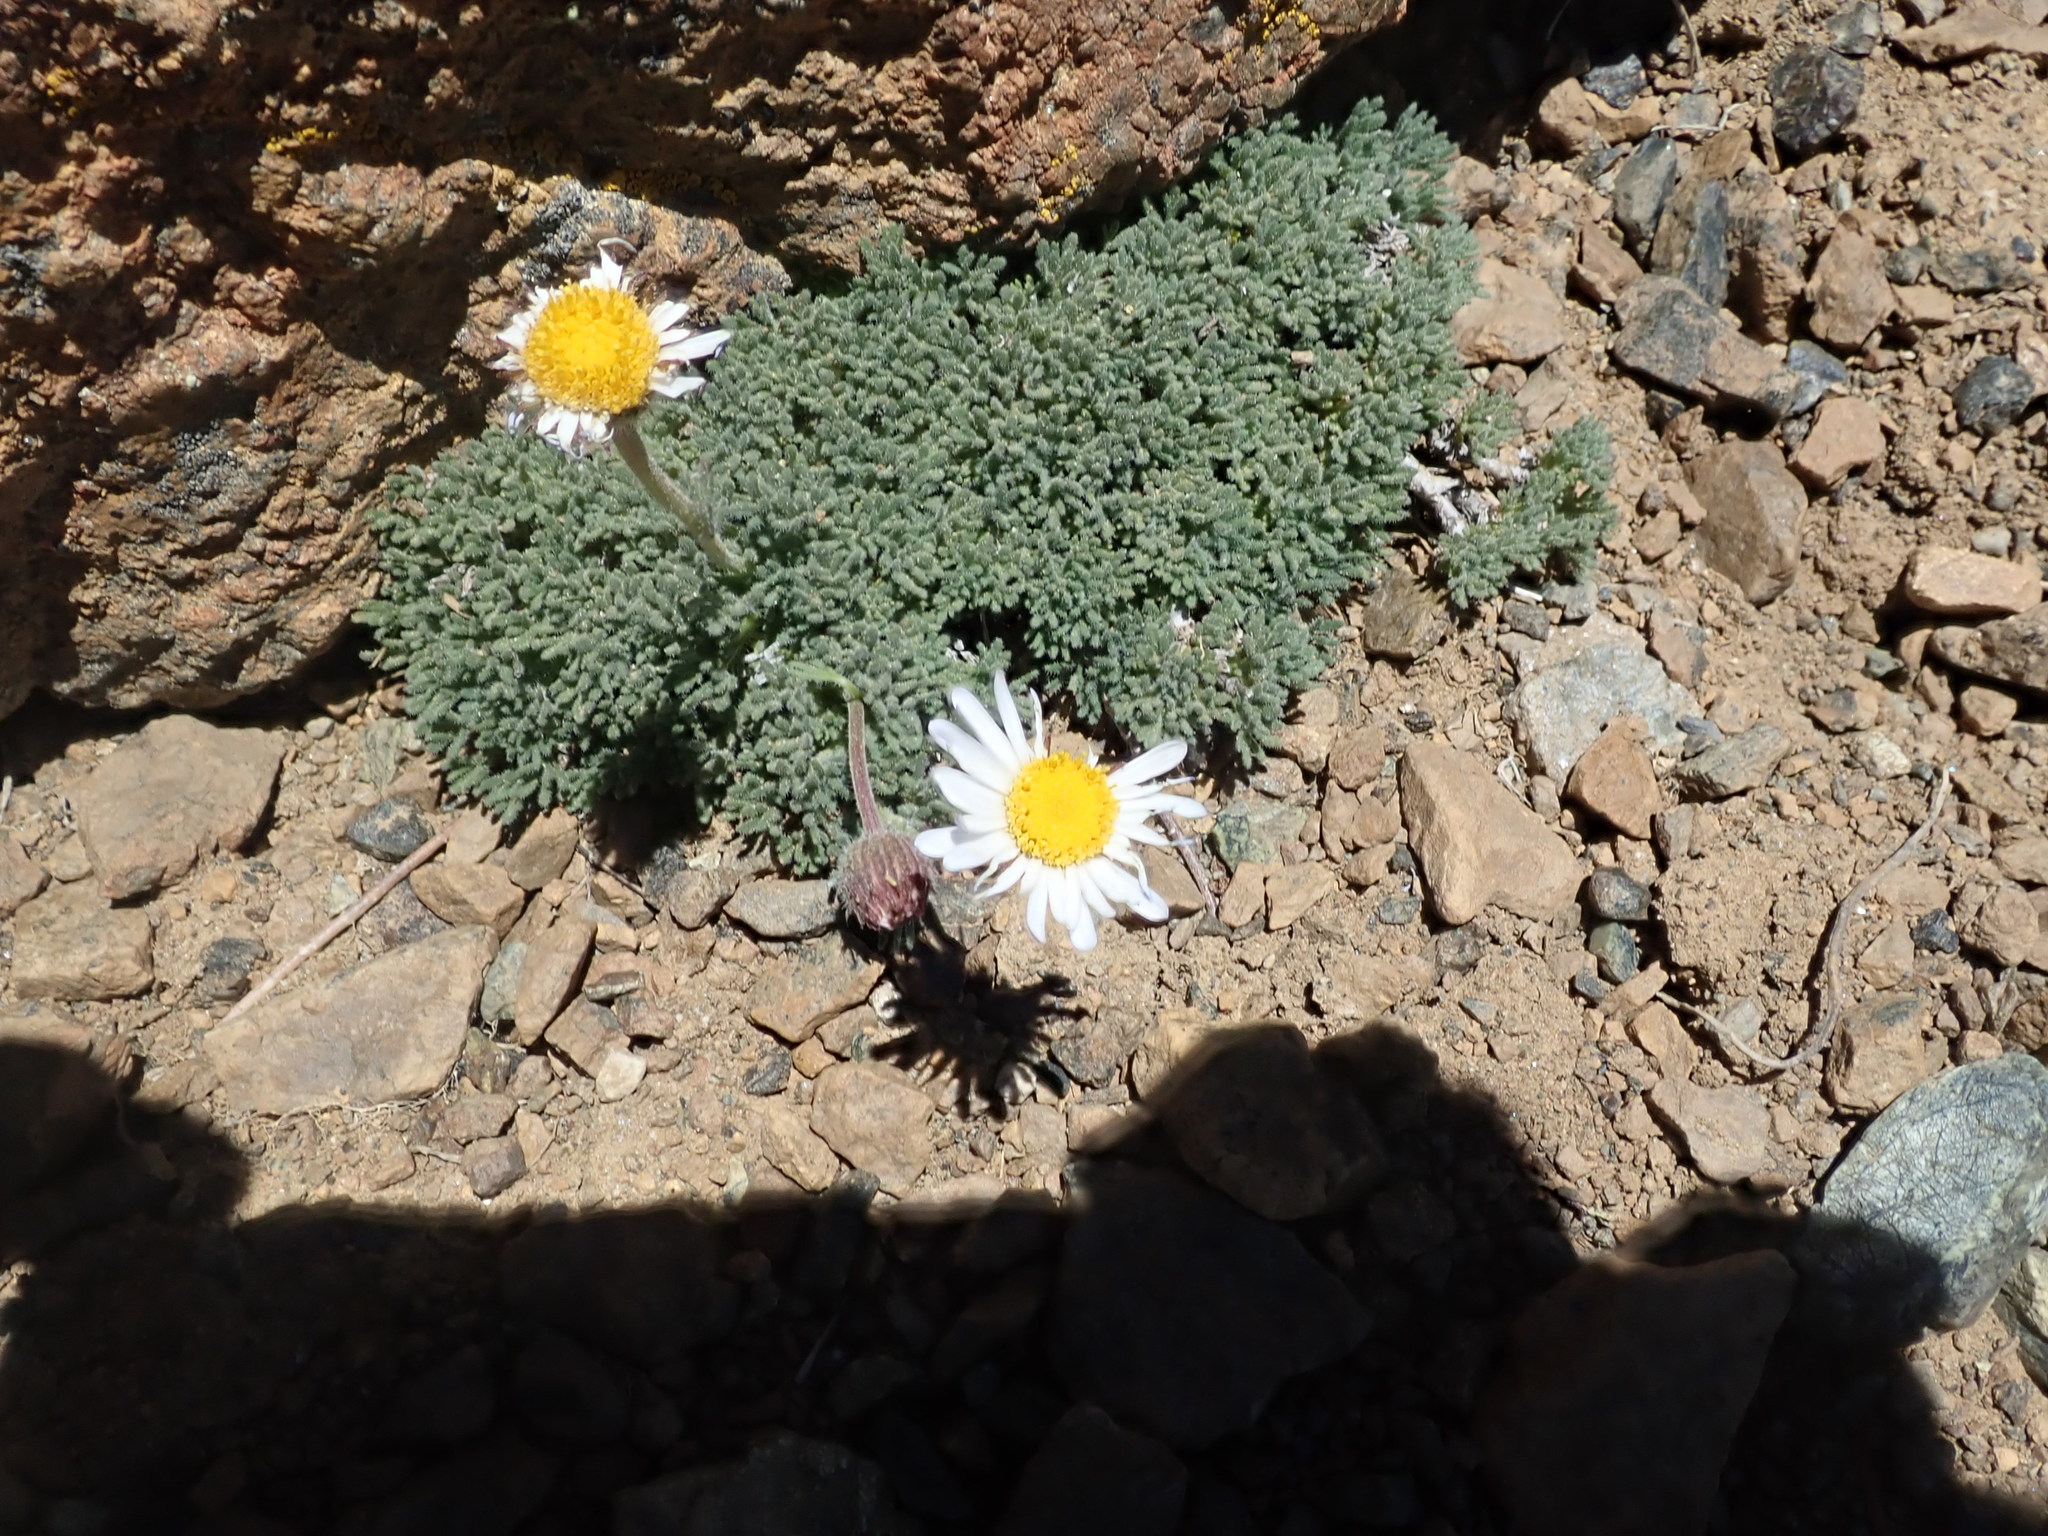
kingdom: Plantae
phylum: Tracheophyta
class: Magnoliopsida
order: Asterales
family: Asteraceae
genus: Erigeron
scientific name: Erigeron compositus
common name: Dwarf mountain fleabane
